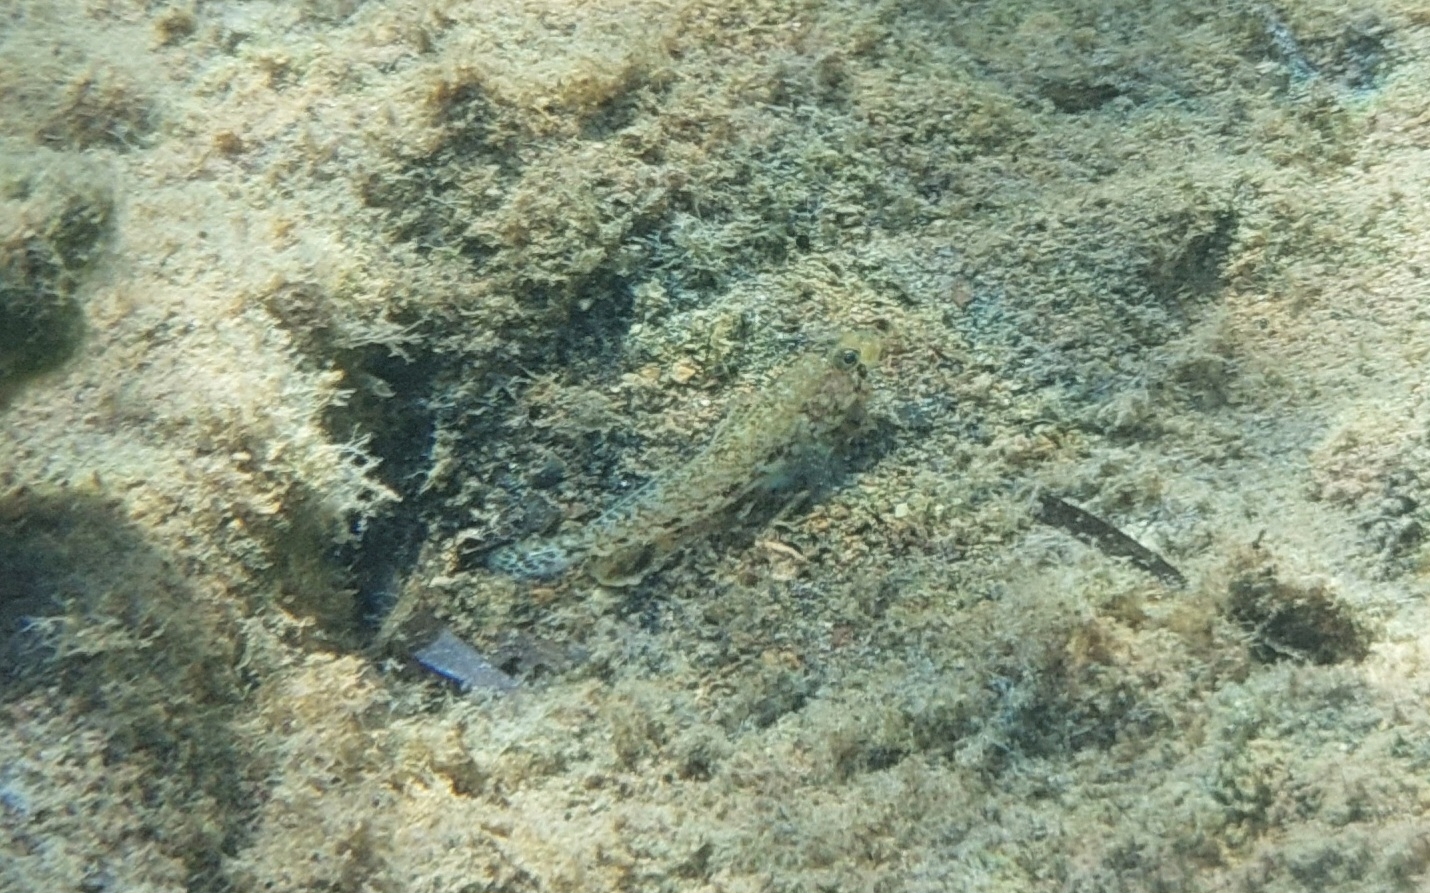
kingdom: Animalia
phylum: Chordata
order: Perciformes
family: Gobiidae
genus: Gobius
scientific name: Gobius geniporus
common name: Slender goby
